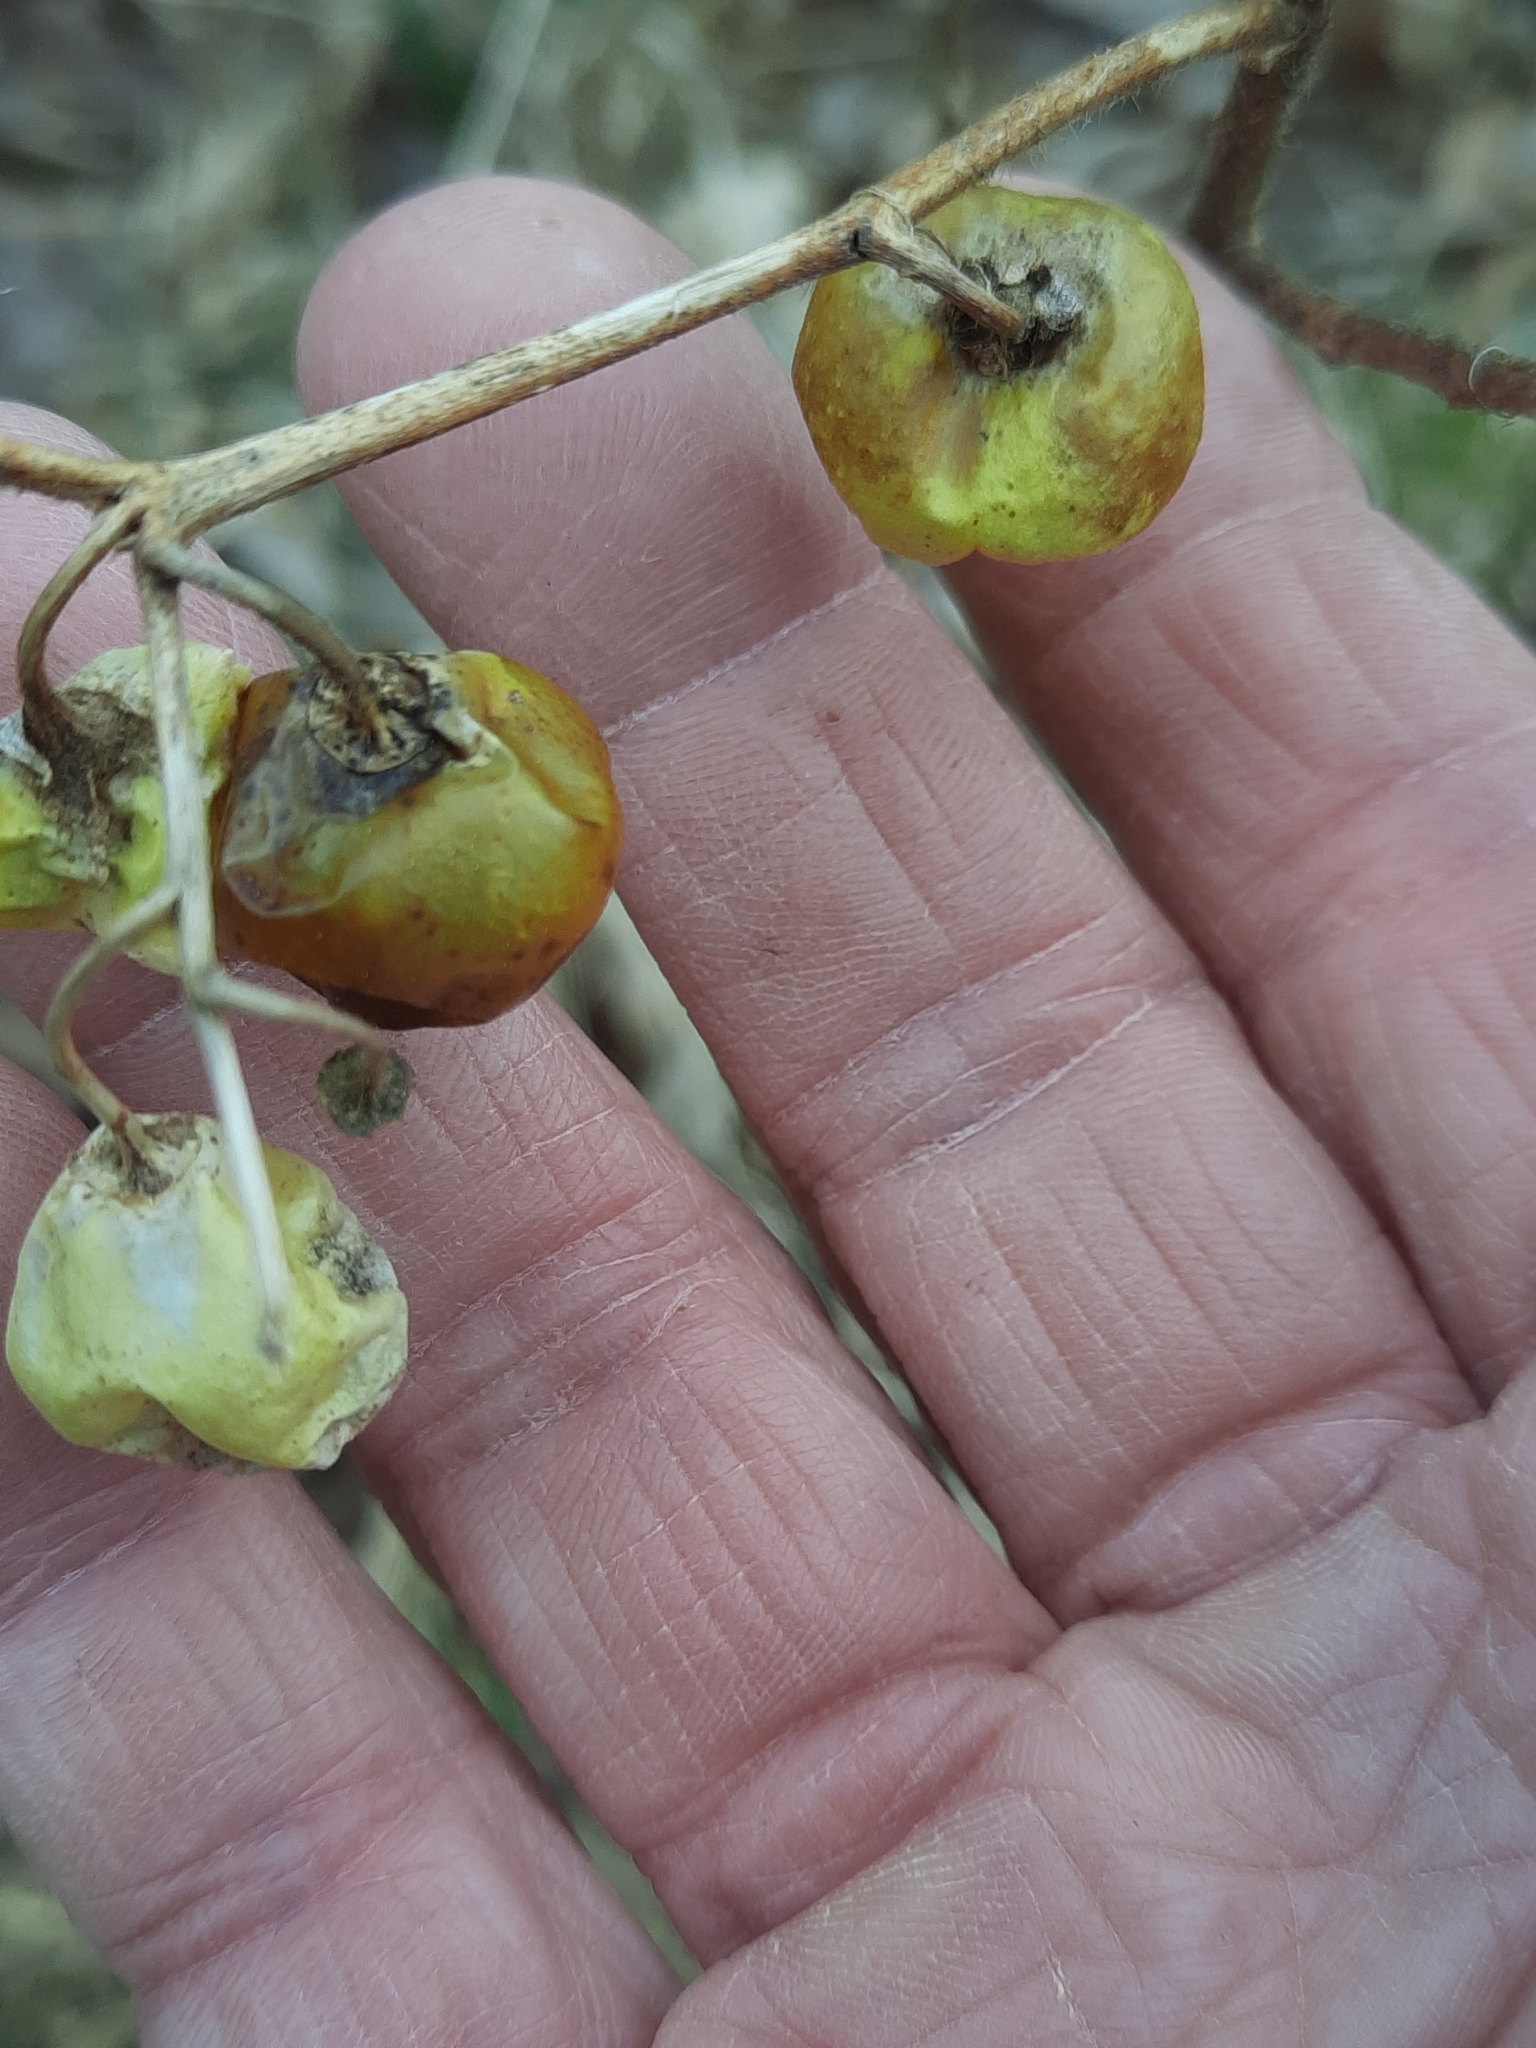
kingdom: Plantae
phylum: Tracheophyta
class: Magnoliopsida
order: Solanales
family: Solanaceae
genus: Solanum
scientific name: Solanum carolinense
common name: Horse-nettle
